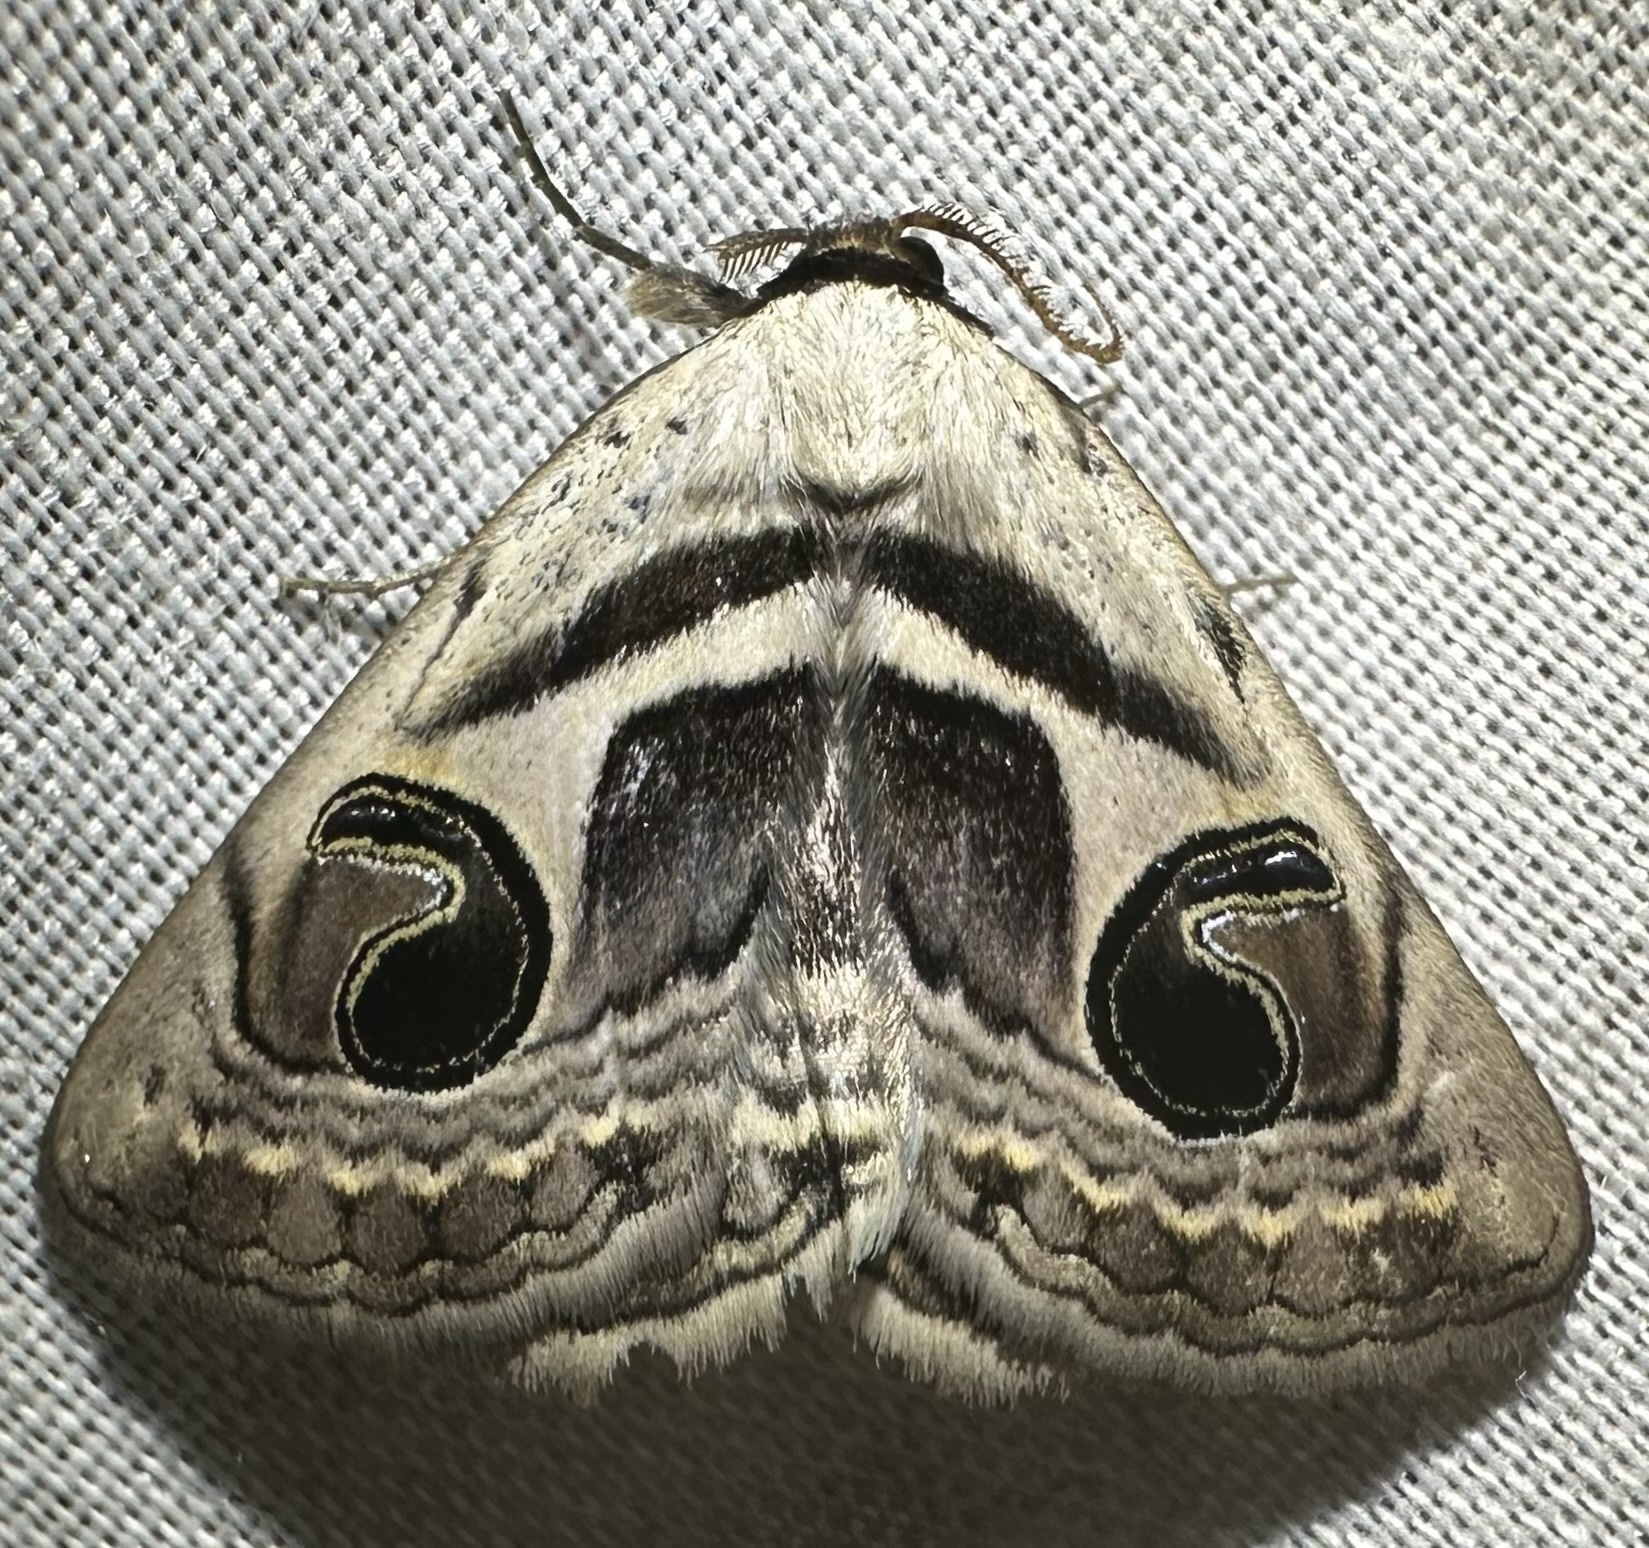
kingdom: Animalia
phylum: Arthropoda
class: Insecta
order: Lepidoptera
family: Erebidae
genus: Cometaster
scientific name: Cometaster pyrula
